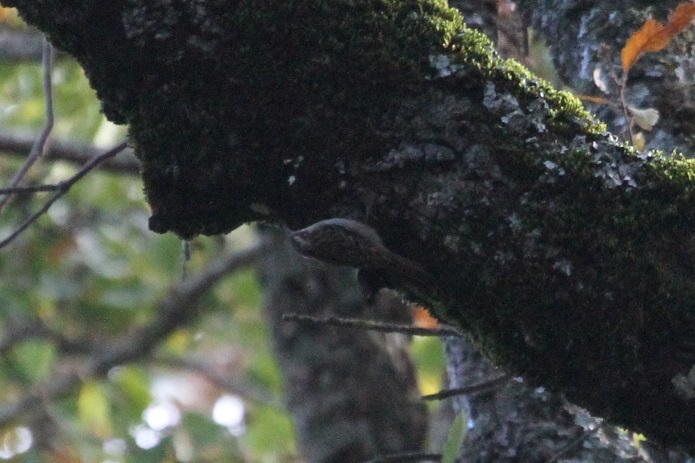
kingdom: Animalia
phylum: Chordata
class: Aves
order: Passeriformes
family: Certhiidae
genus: Certhia
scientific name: Certhia brachydactyla
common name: Short-toed treecreeper
